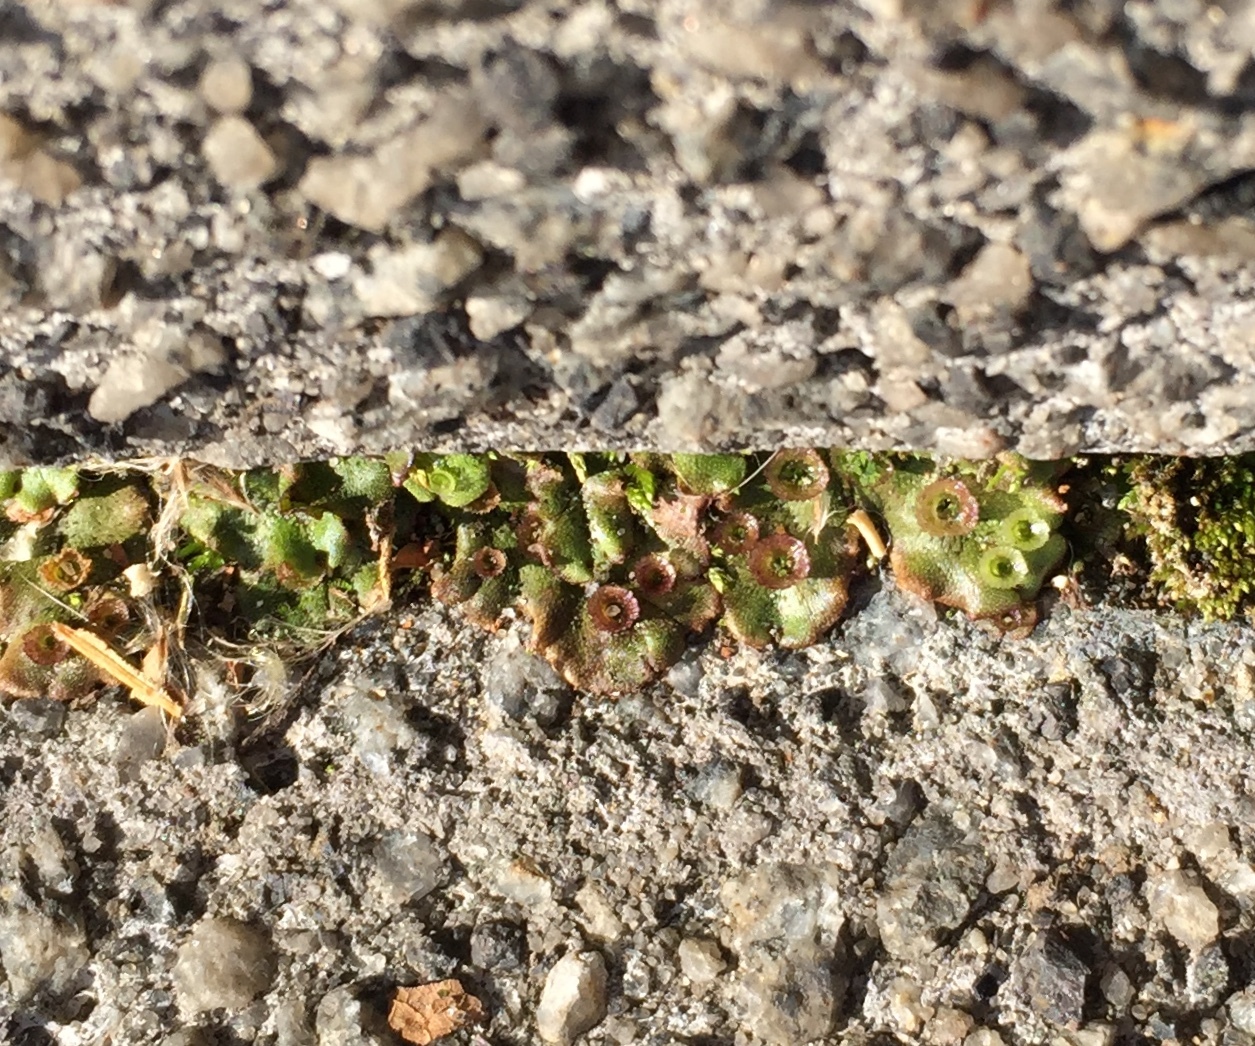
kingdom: Plantae
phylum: Marchantiophyta
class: Marchantiopsida
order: Marchantiales
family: Marchantiaceae
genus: Marchantia
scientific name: Marchantia polymorpha
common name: Common liverwort
